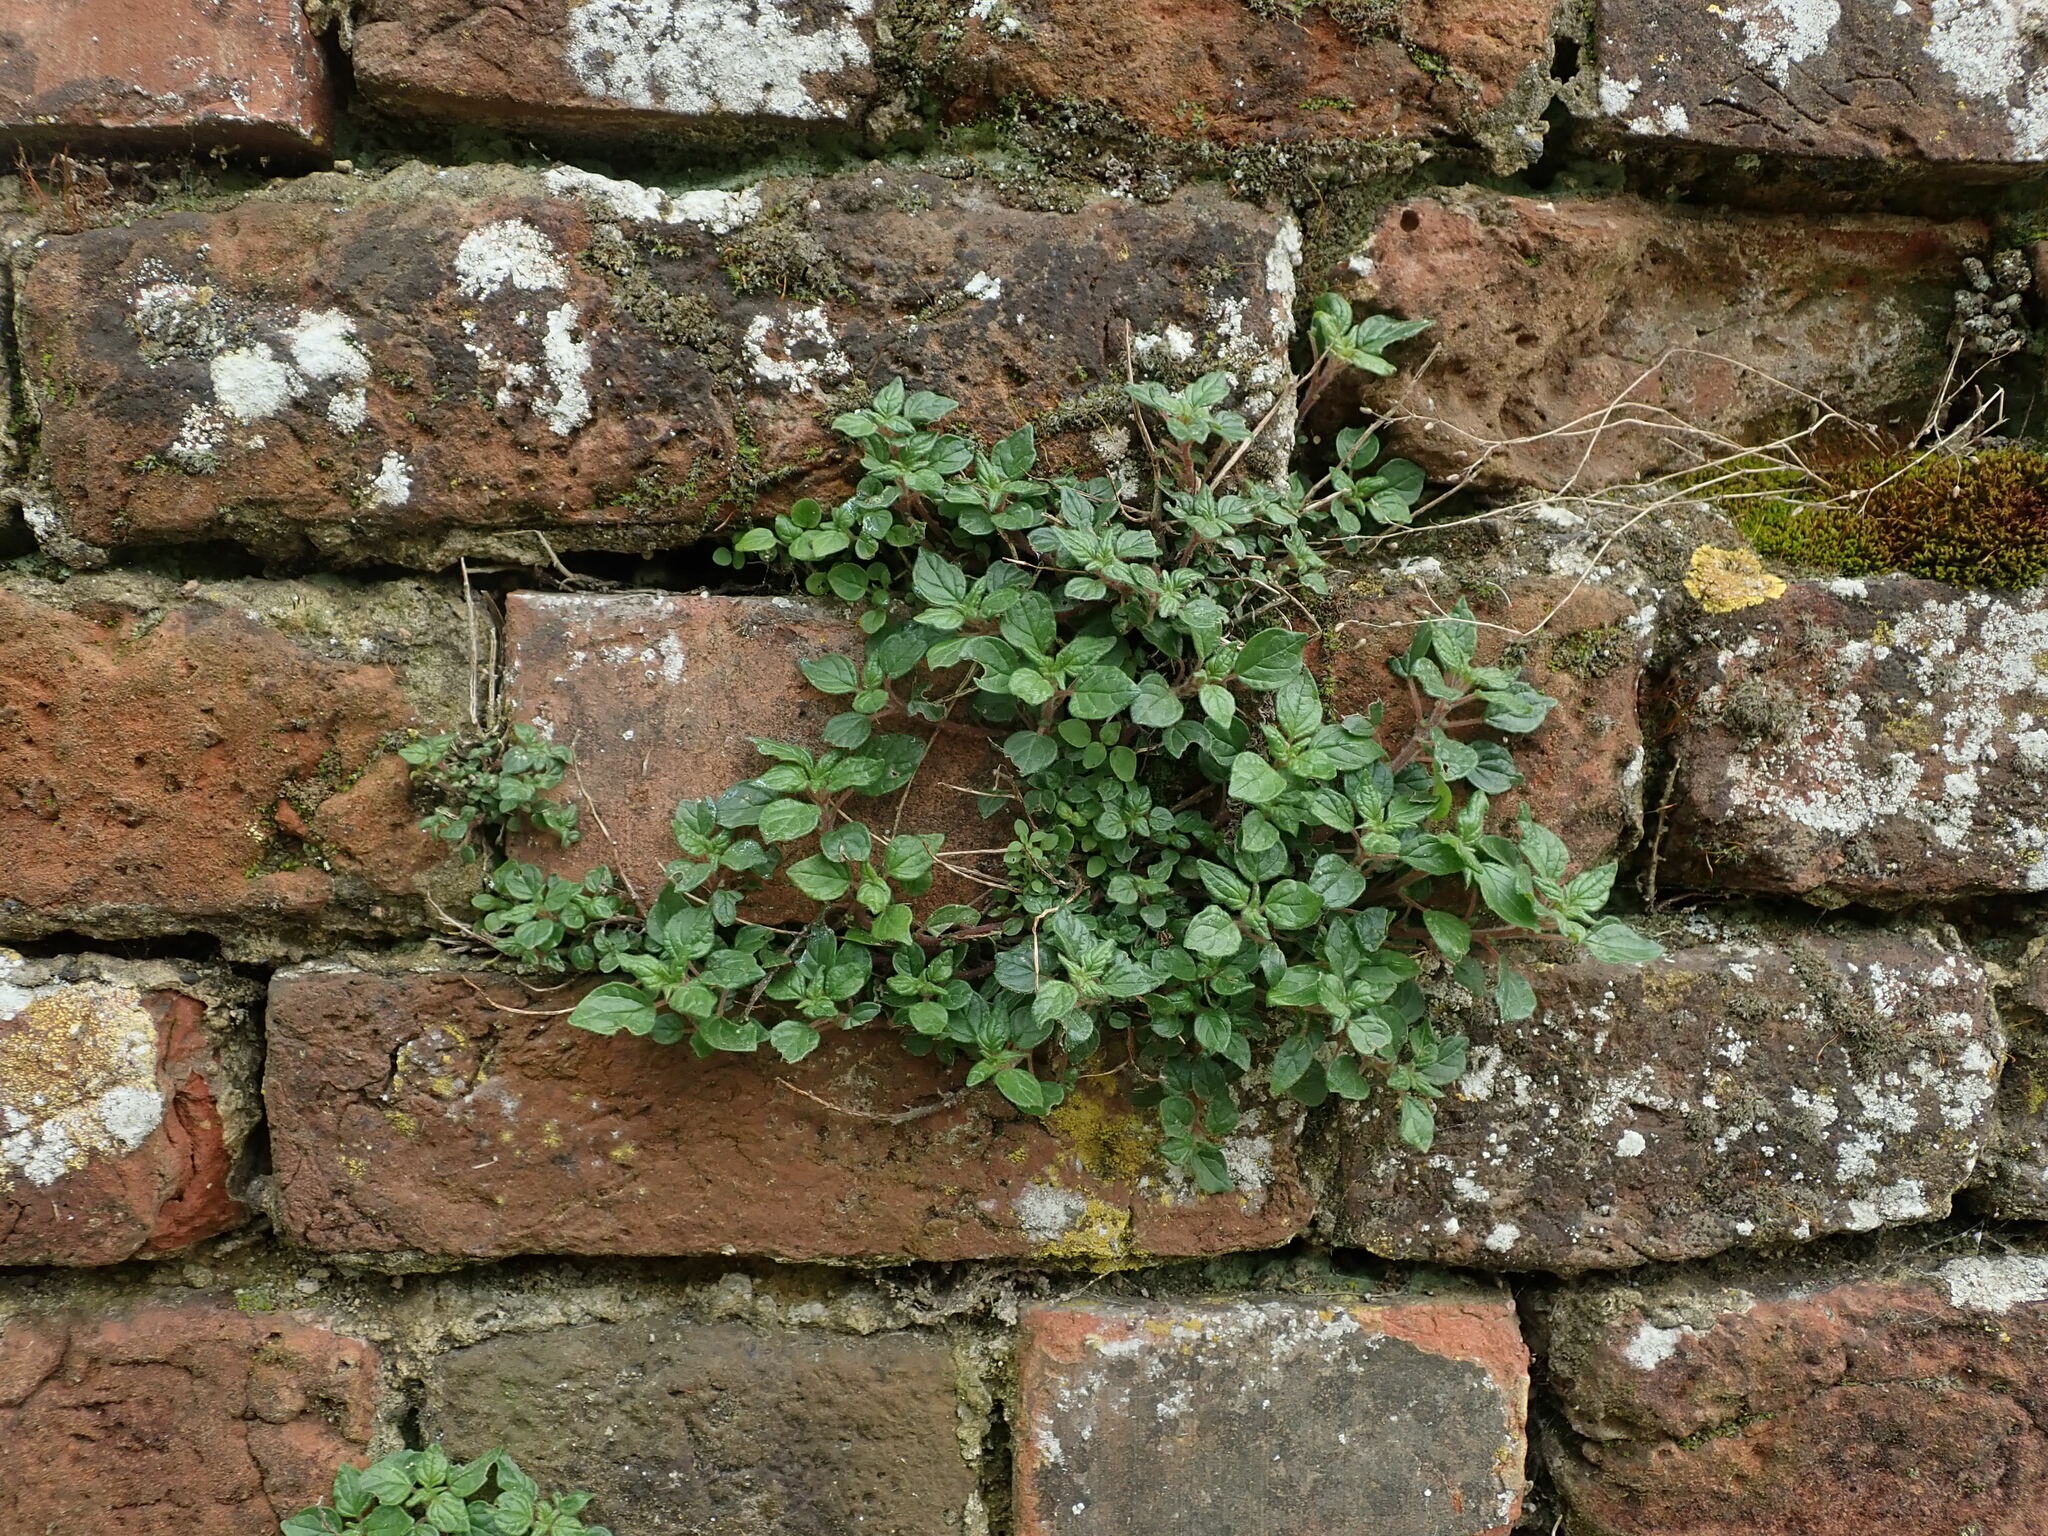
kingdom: Plantae
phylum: Tracheophyta
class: Magnoliopsida
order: Rosales
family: Urticaceae
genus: Parietaria
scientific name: Parietaria judaica
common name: Pellitory-of-the-wall
